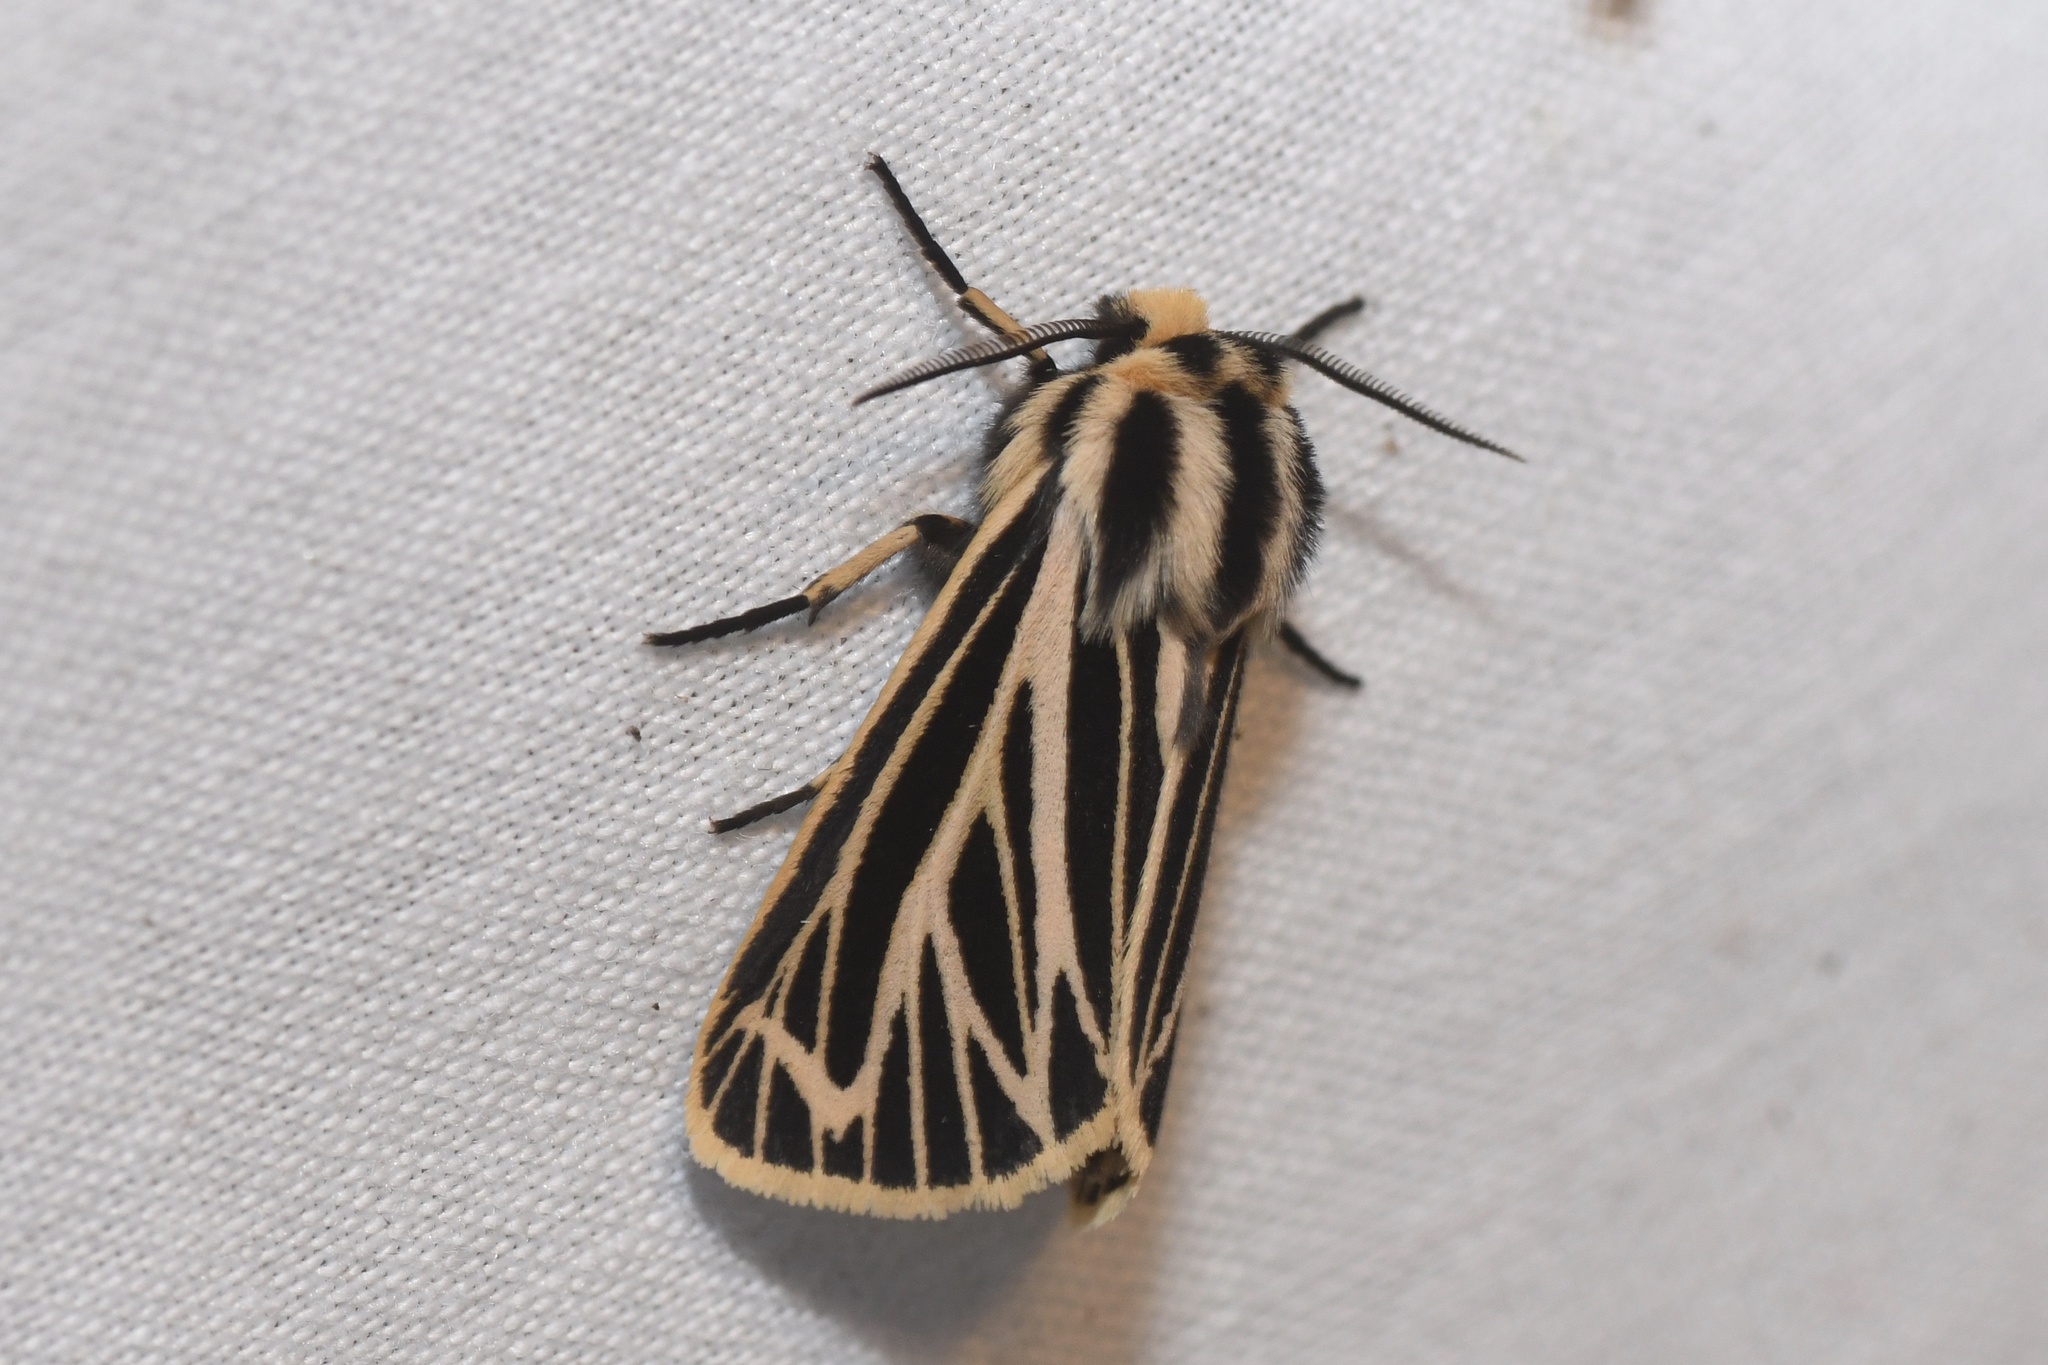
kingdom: Animalia
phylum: Arthropoda
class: Insecta
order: Lepidoptera
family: Erebidae
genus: Grammia
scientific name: Grammia virguncula
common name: Little tiger moth
